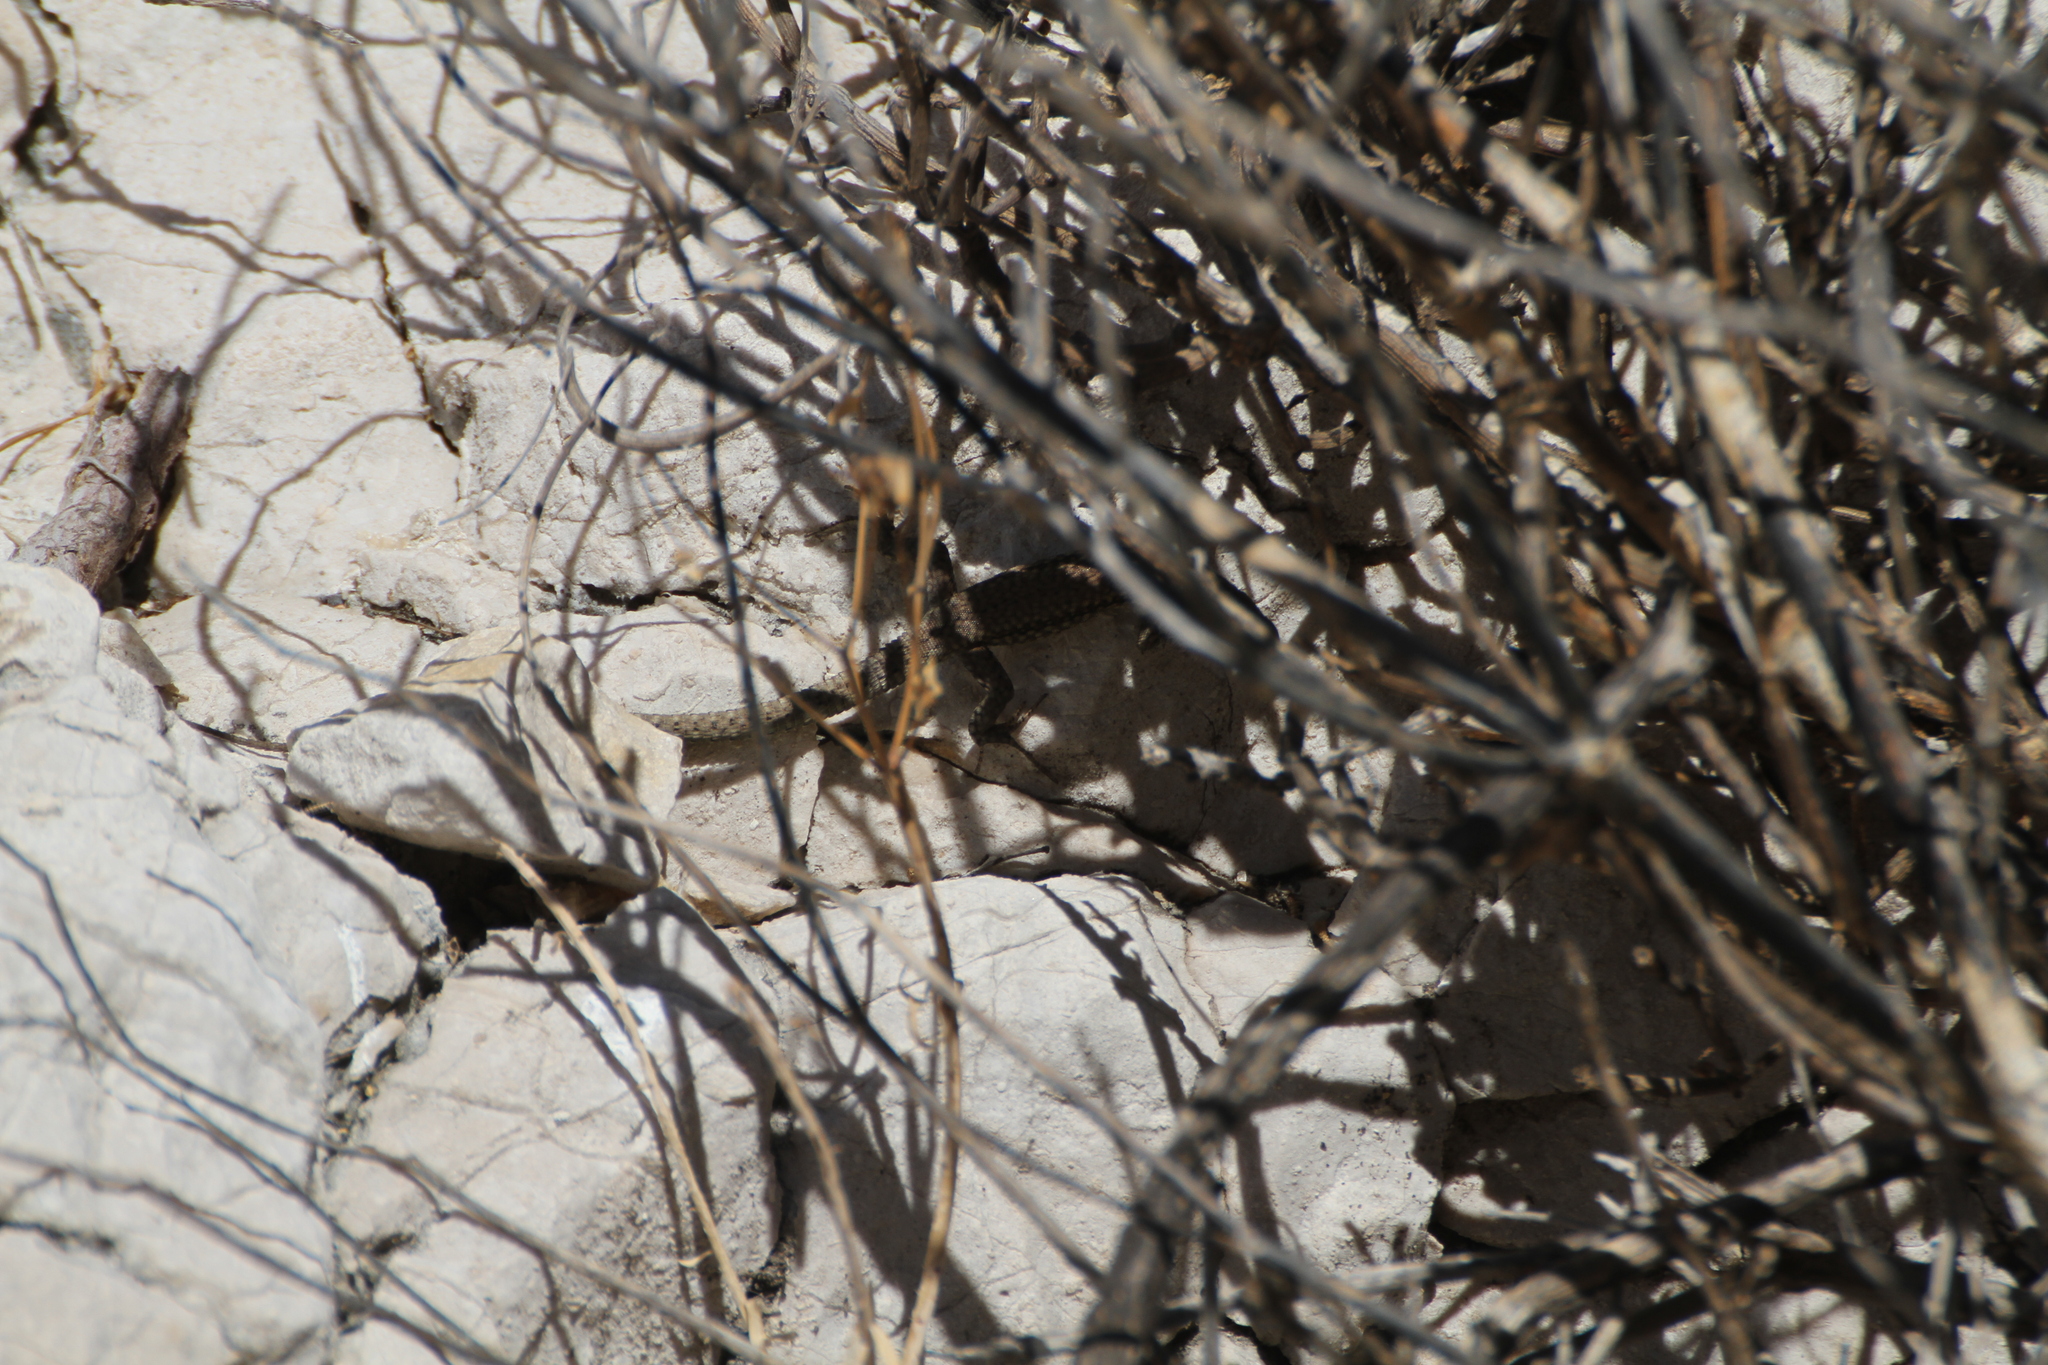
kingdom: Animalia
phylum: Chordata
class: Squamata
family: Lacertidae
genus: Podarcis
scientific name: Podarcis muralis
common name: Common wall lizard
